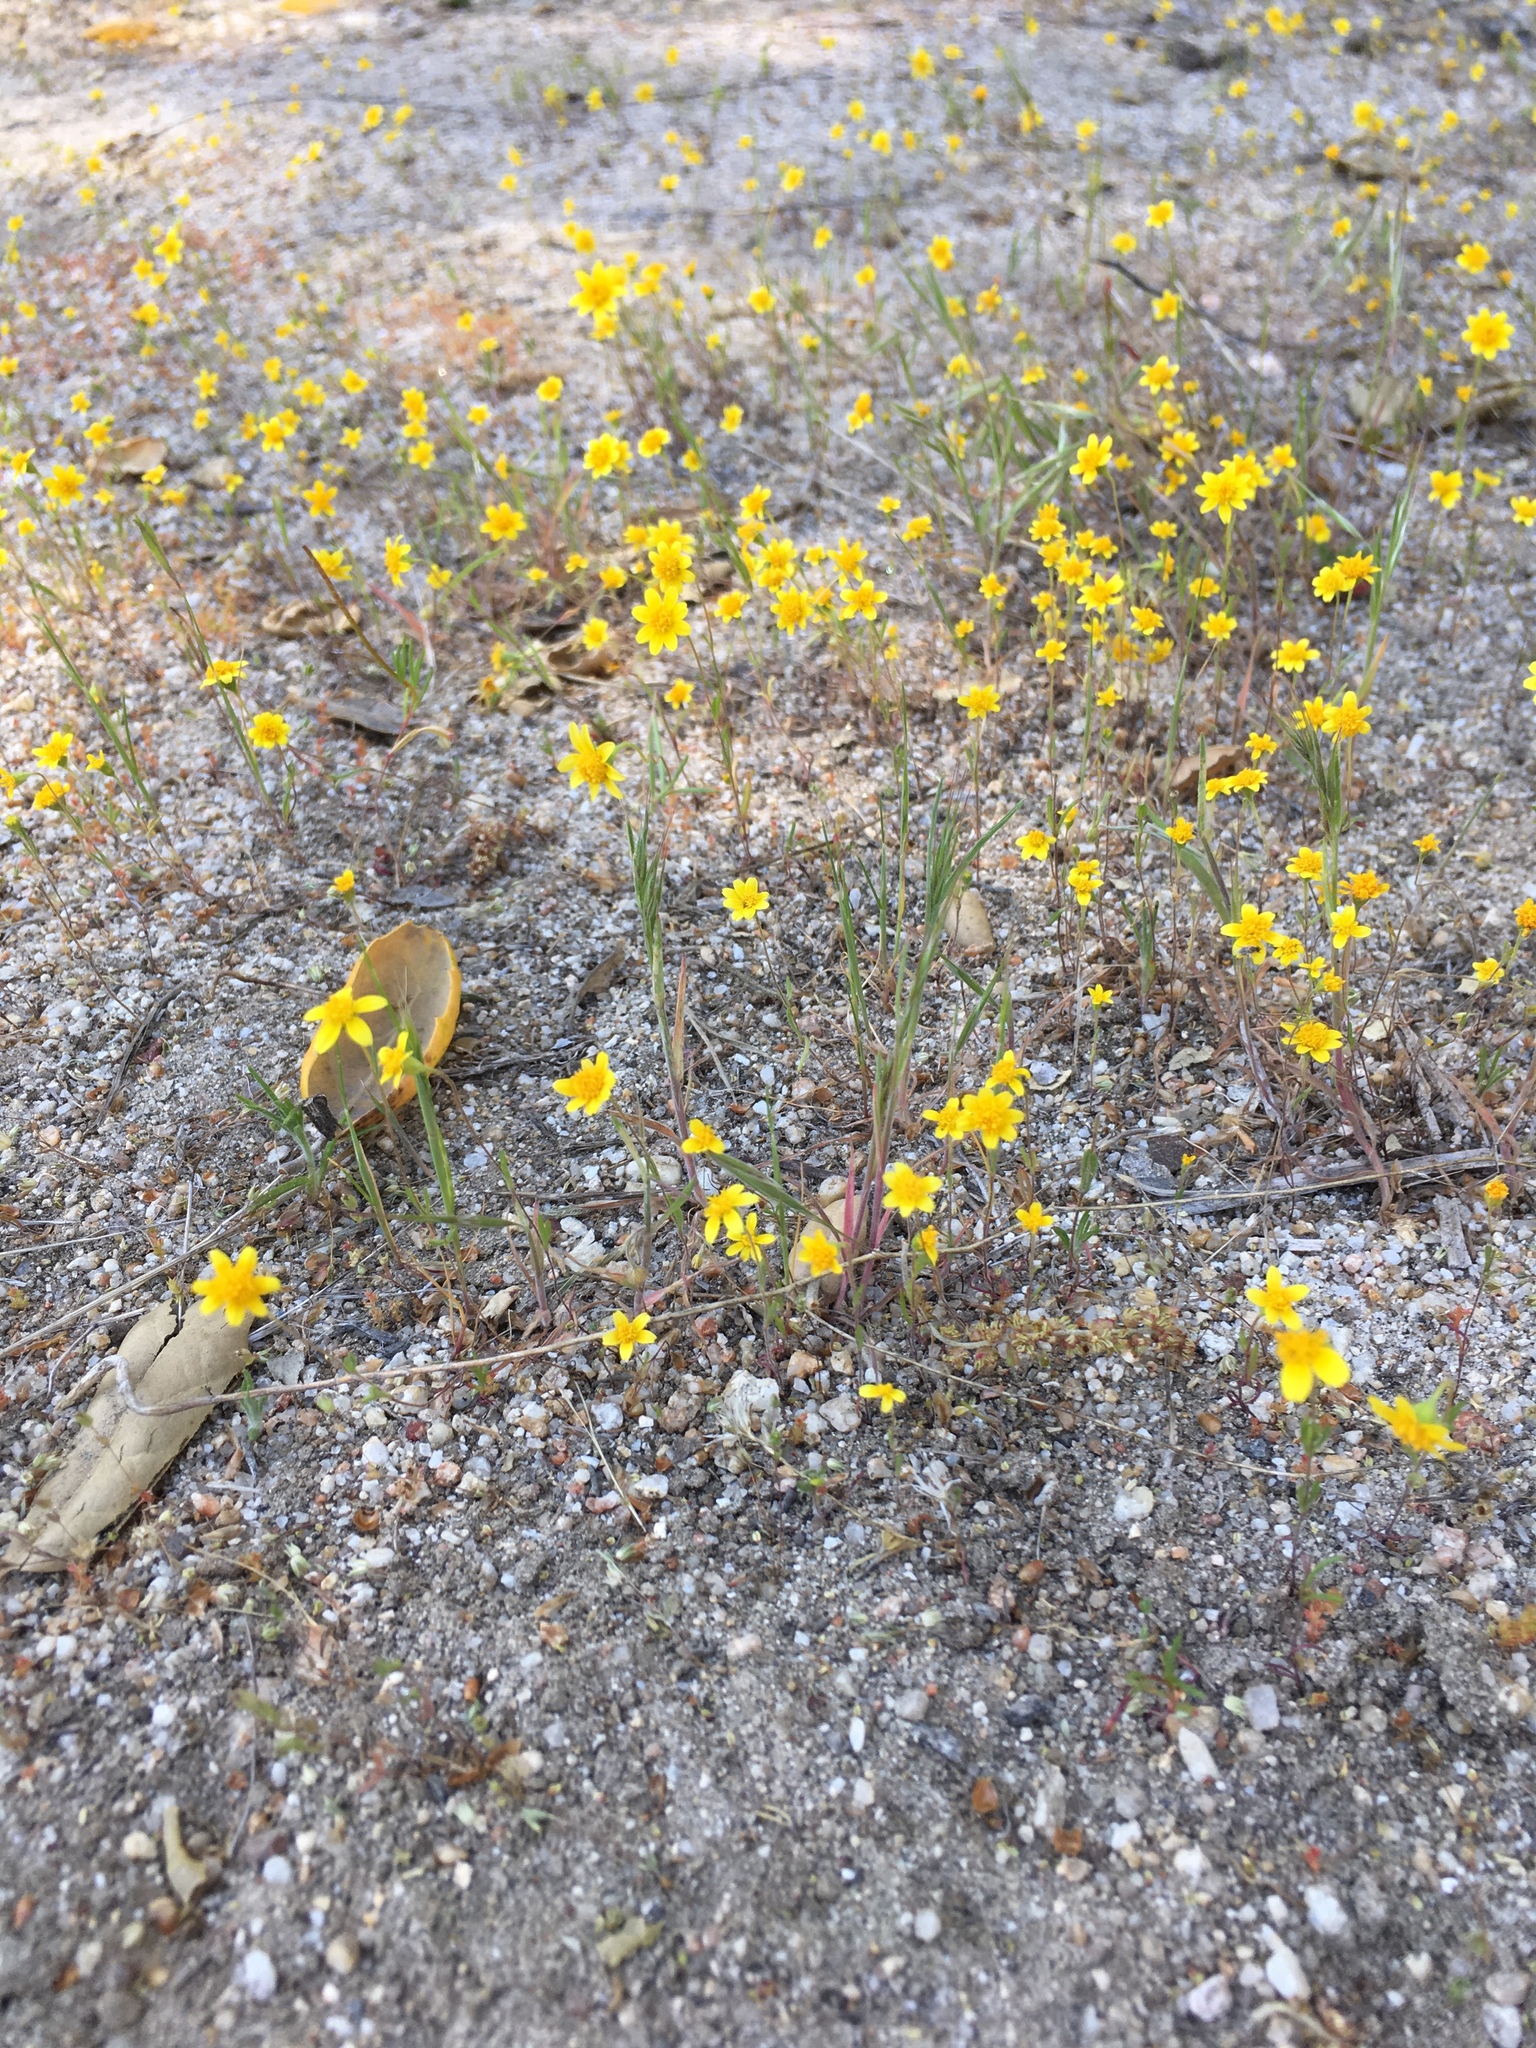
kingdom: Plantae
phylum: Tracheophyta
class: Magnoliopsida
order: Asterales
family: Asteraceae
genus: Lasthenia
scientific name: Lasthenia gracilis
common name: Common goldfields
